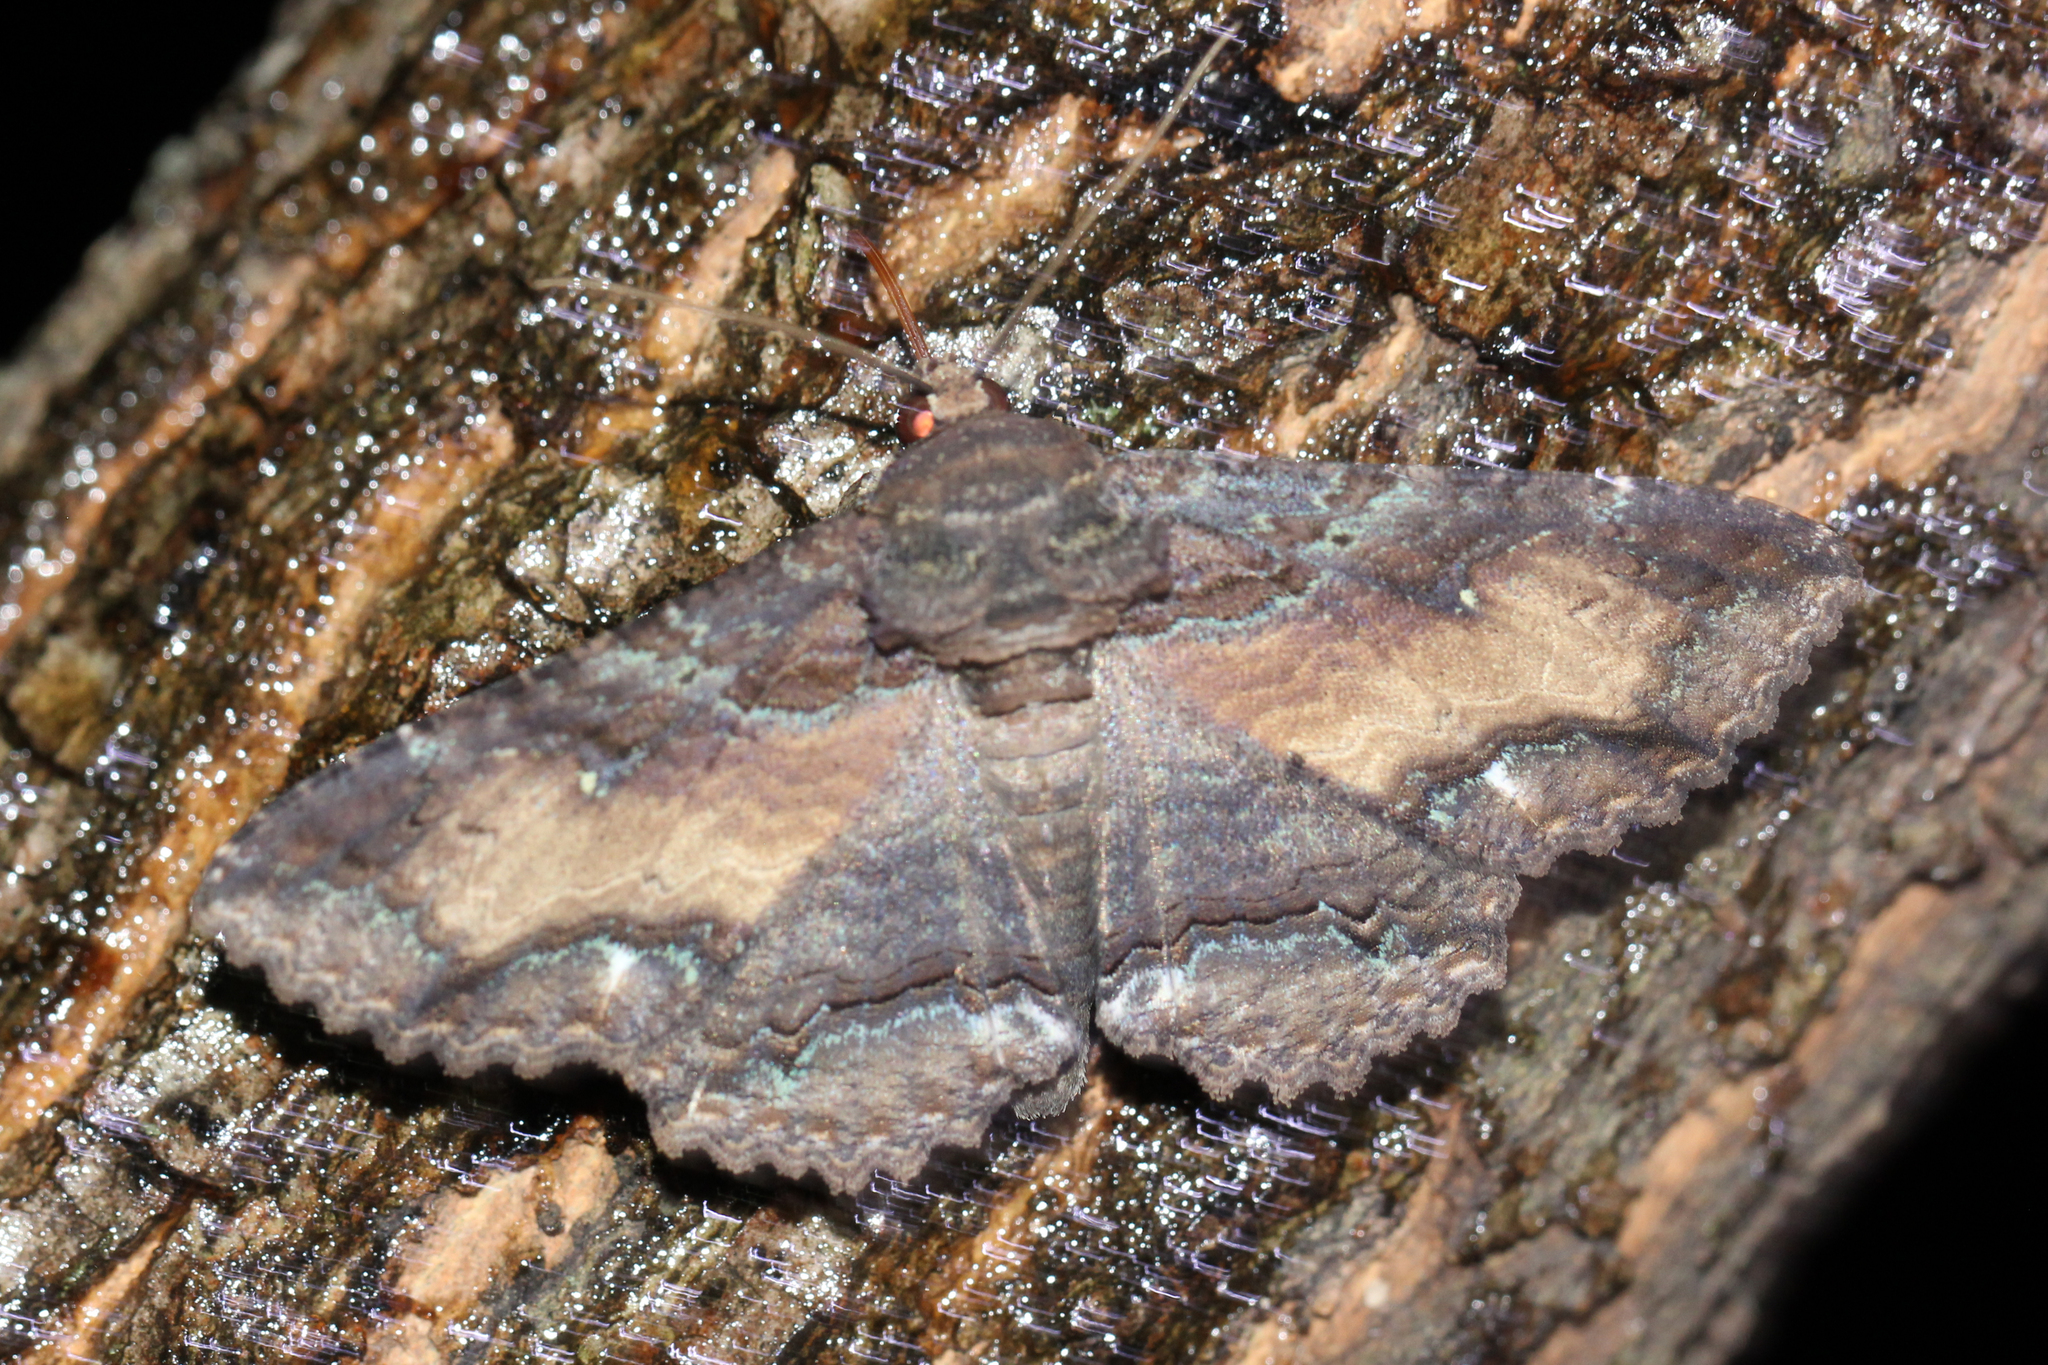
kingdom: Animalia
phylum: Arthropoda
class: Insecta
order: Lepidoptera
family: Erebidae
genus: Zale
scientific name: Zale lunata
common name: Lunate zale moth
